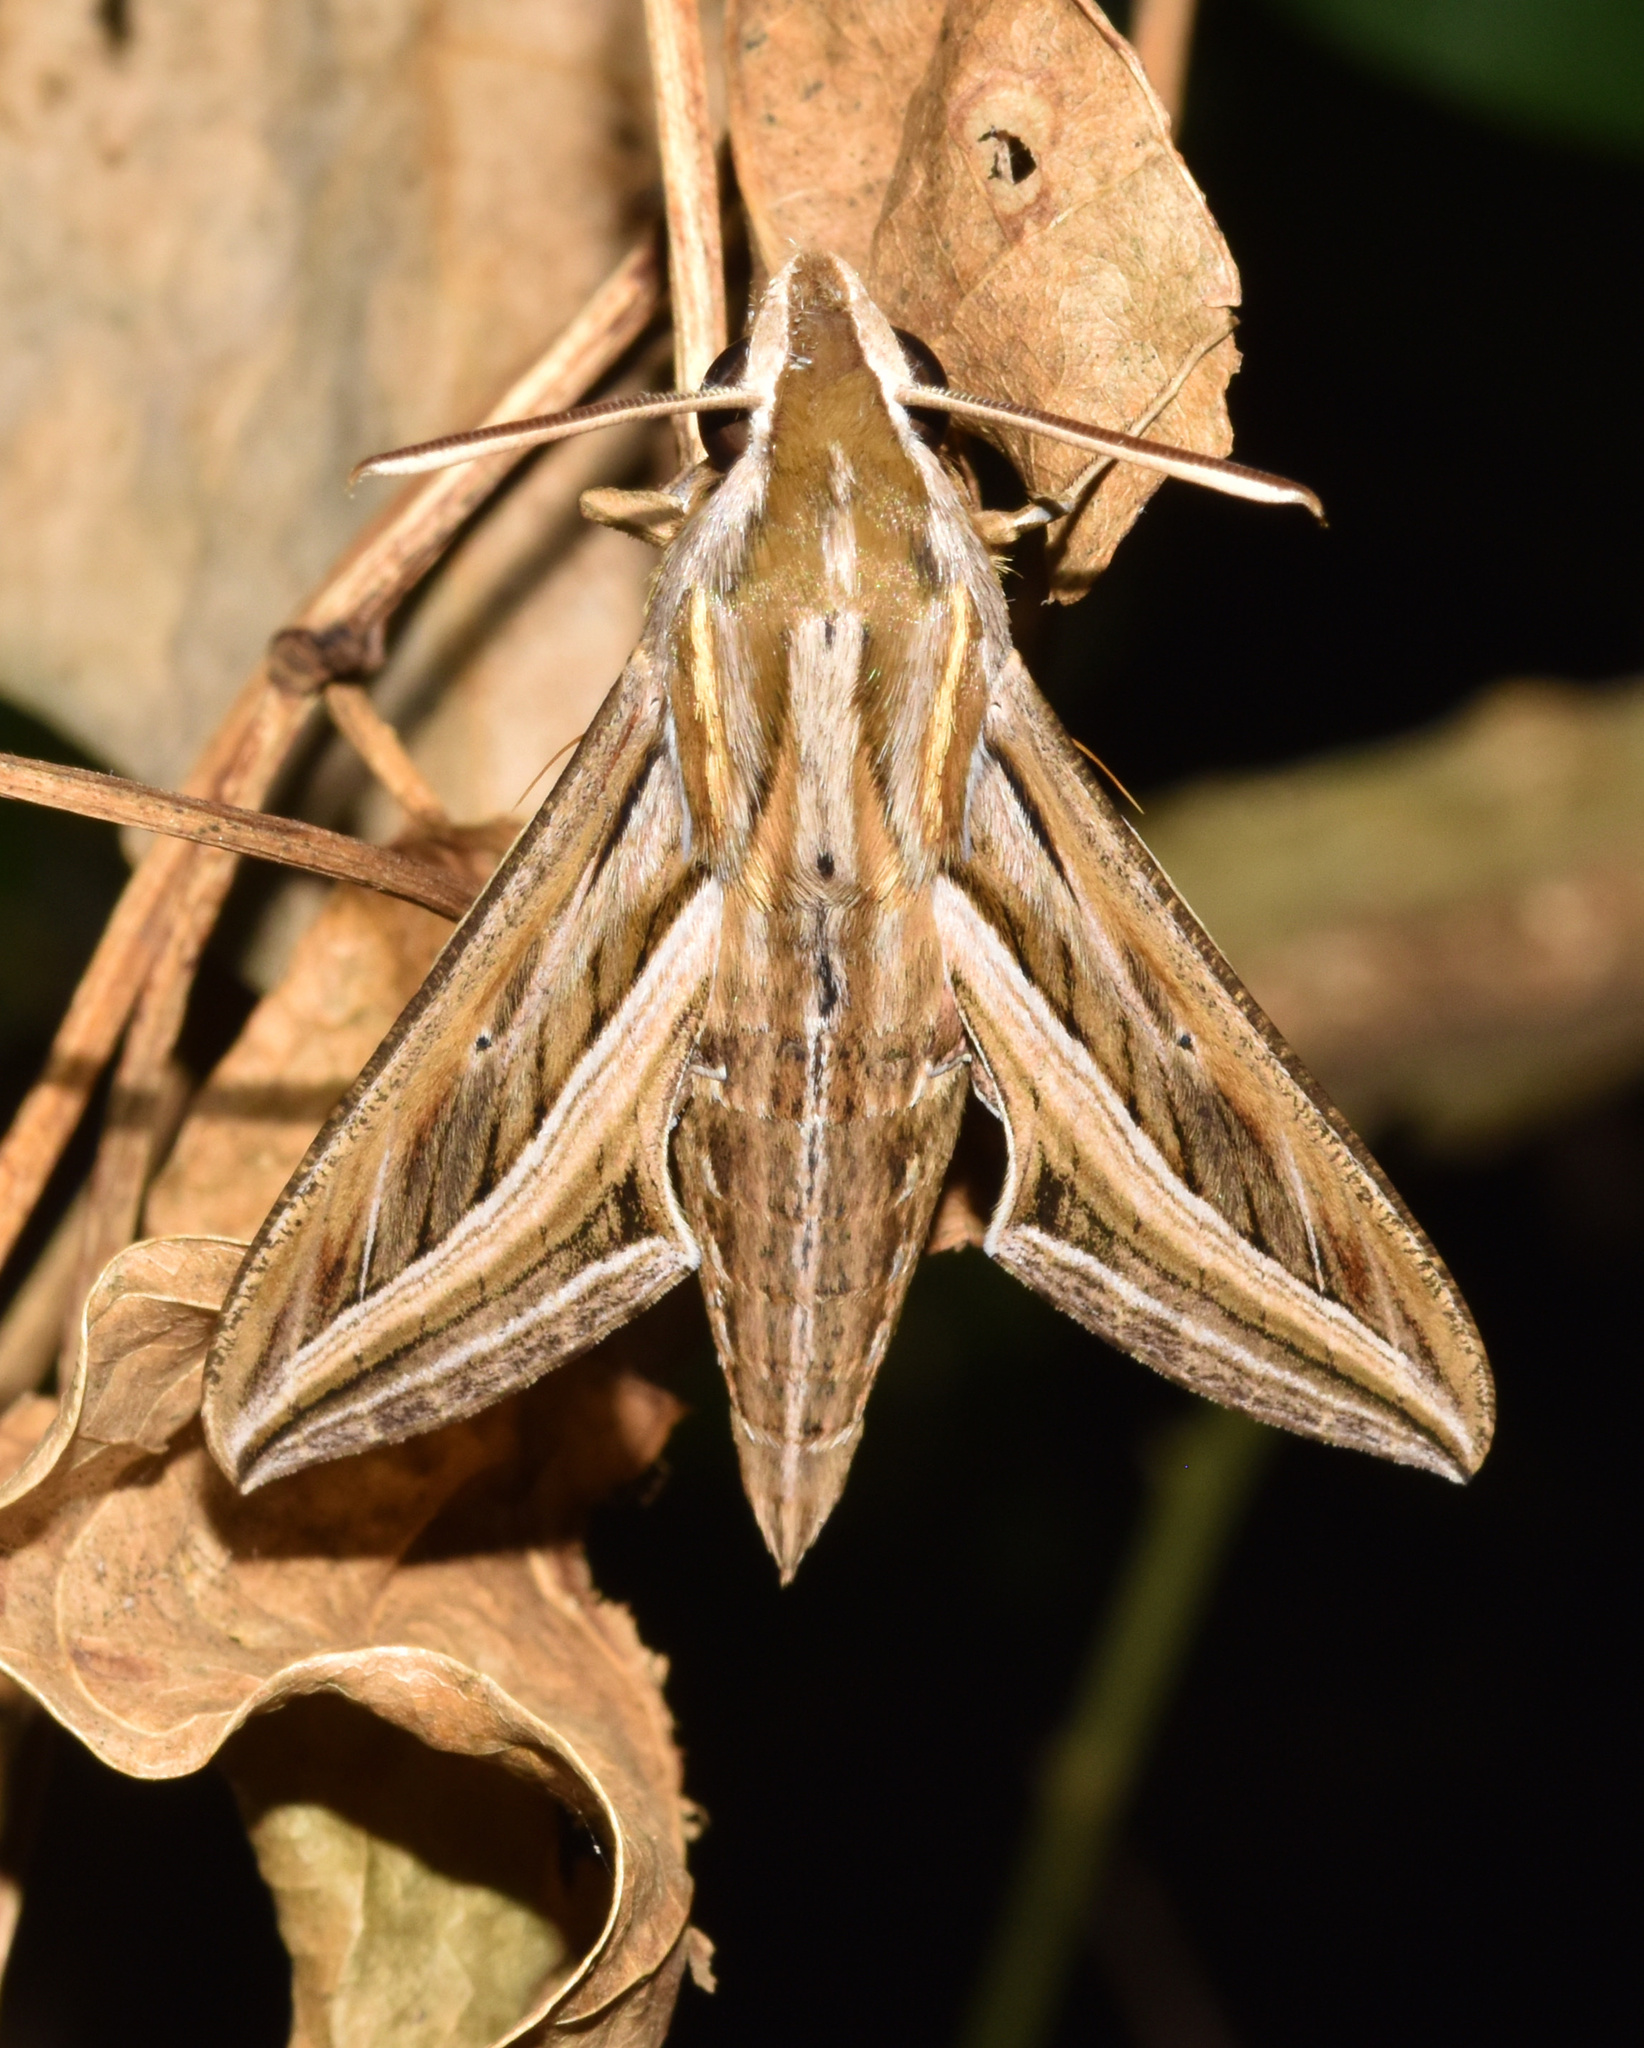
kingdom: Animalia
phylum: Arthropoda
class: Insecta
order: Lepidoptera
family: Sphingidae
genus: Hippotion
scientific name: Hippotion celerio
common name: Silver-striped hawk-moth
